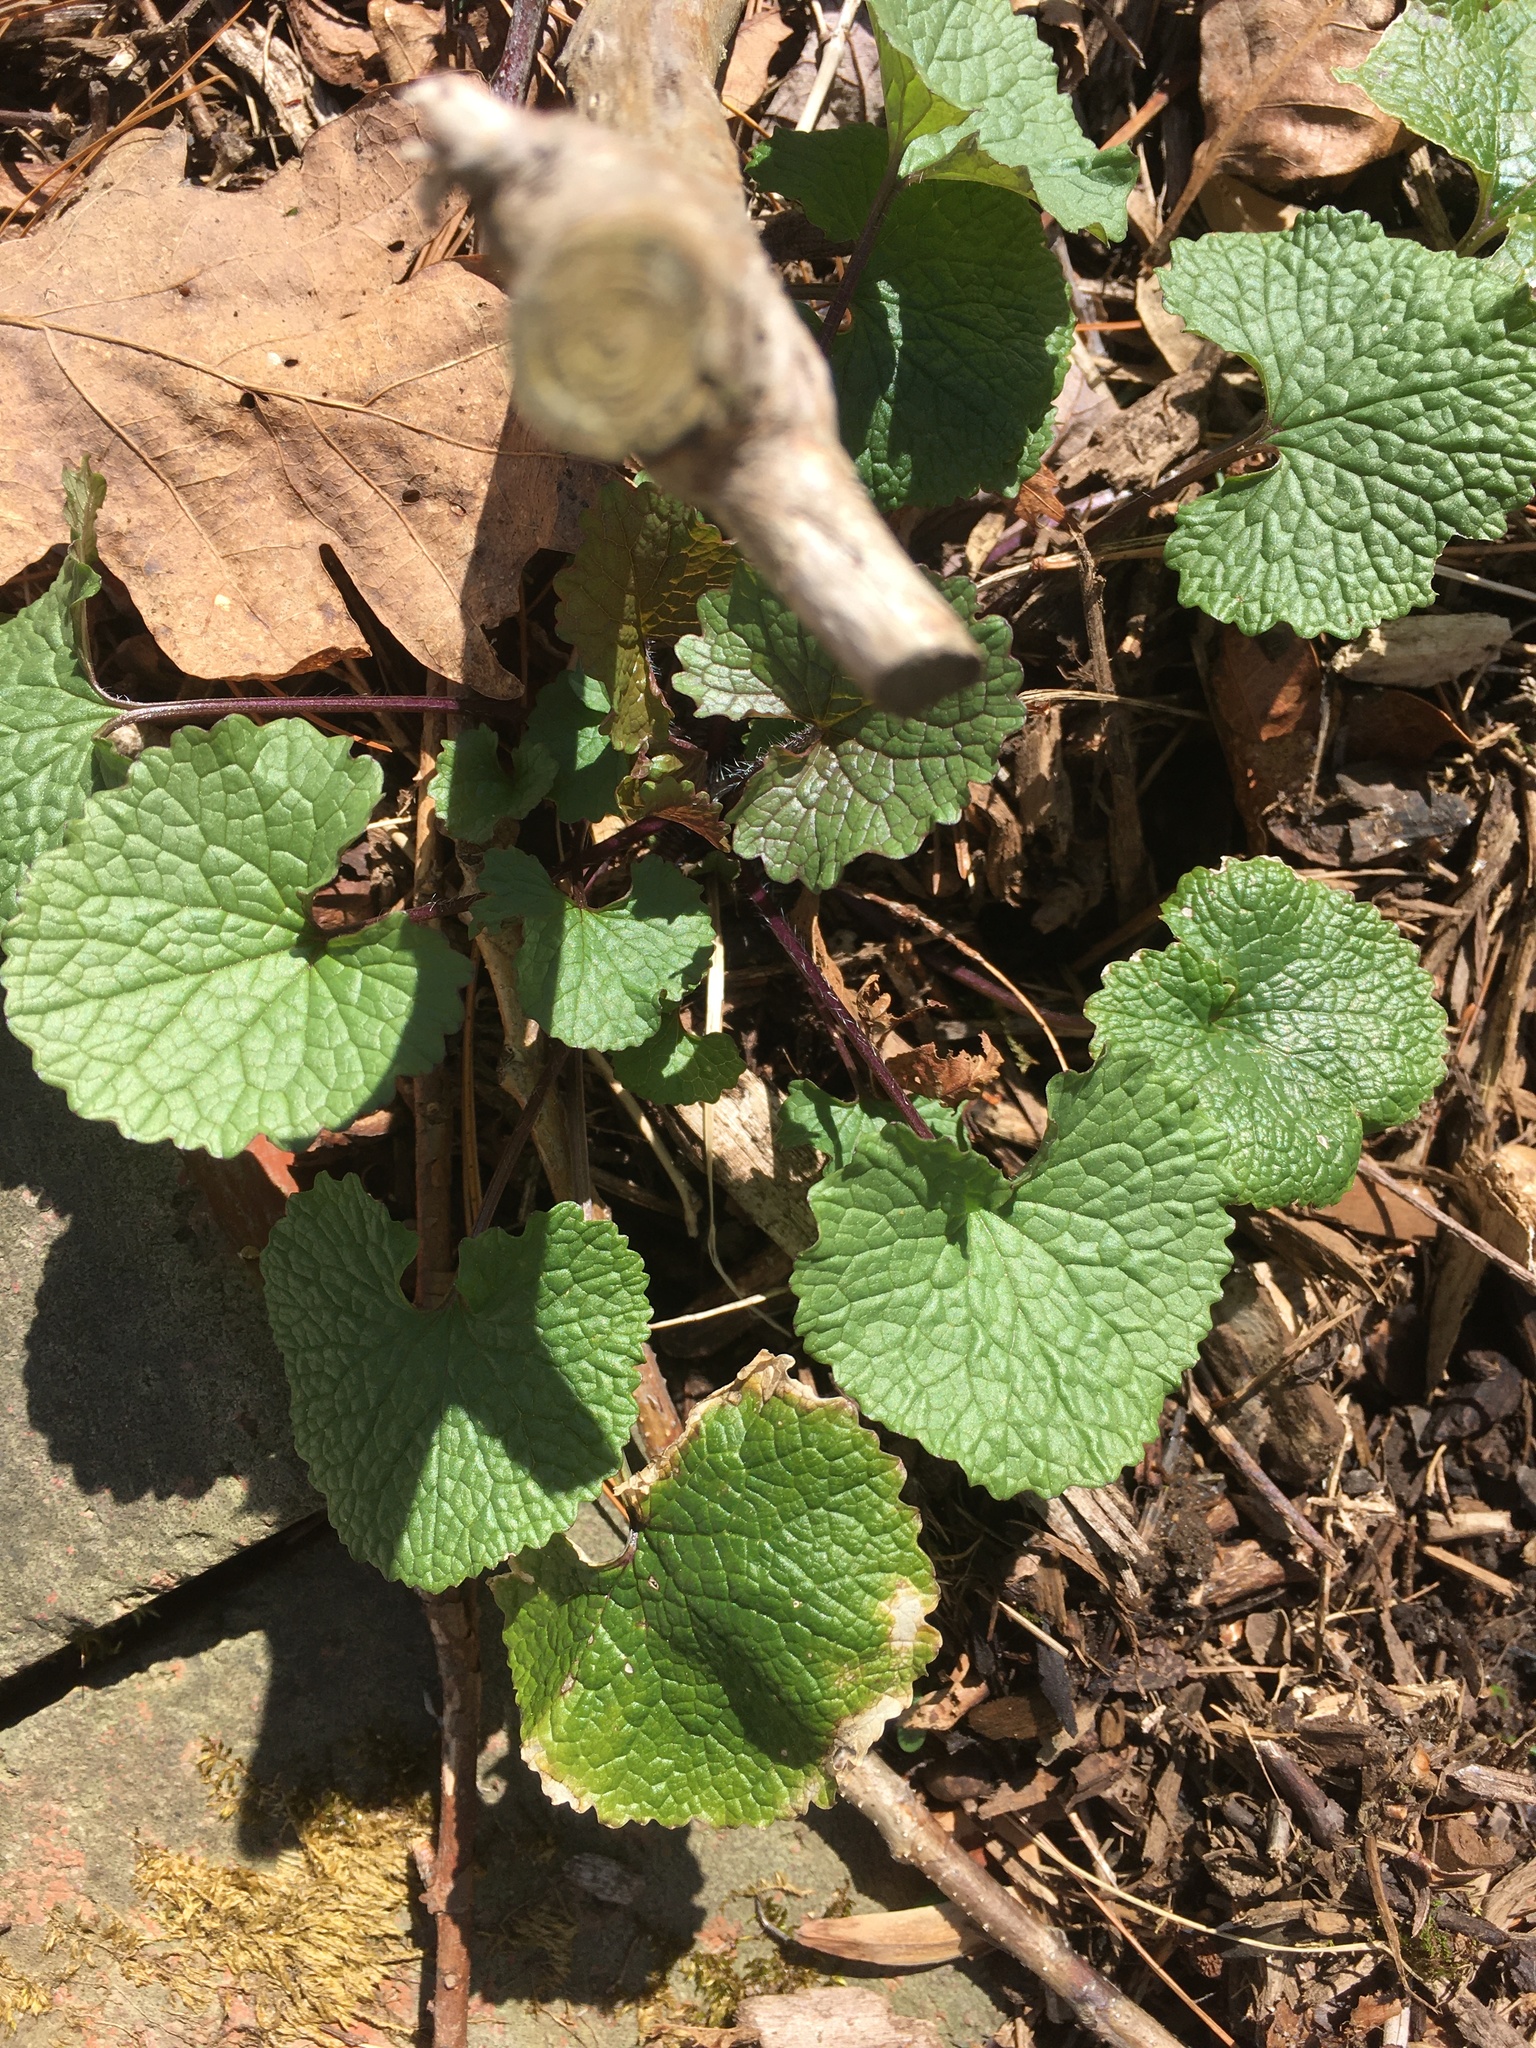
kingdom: Plantae
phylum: Tracheophyta
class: Magnoliopsida
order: Brassicales
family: Brassicaceae
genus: Alliaria
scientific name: Alliaria petiolata
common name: Garlic mustard
